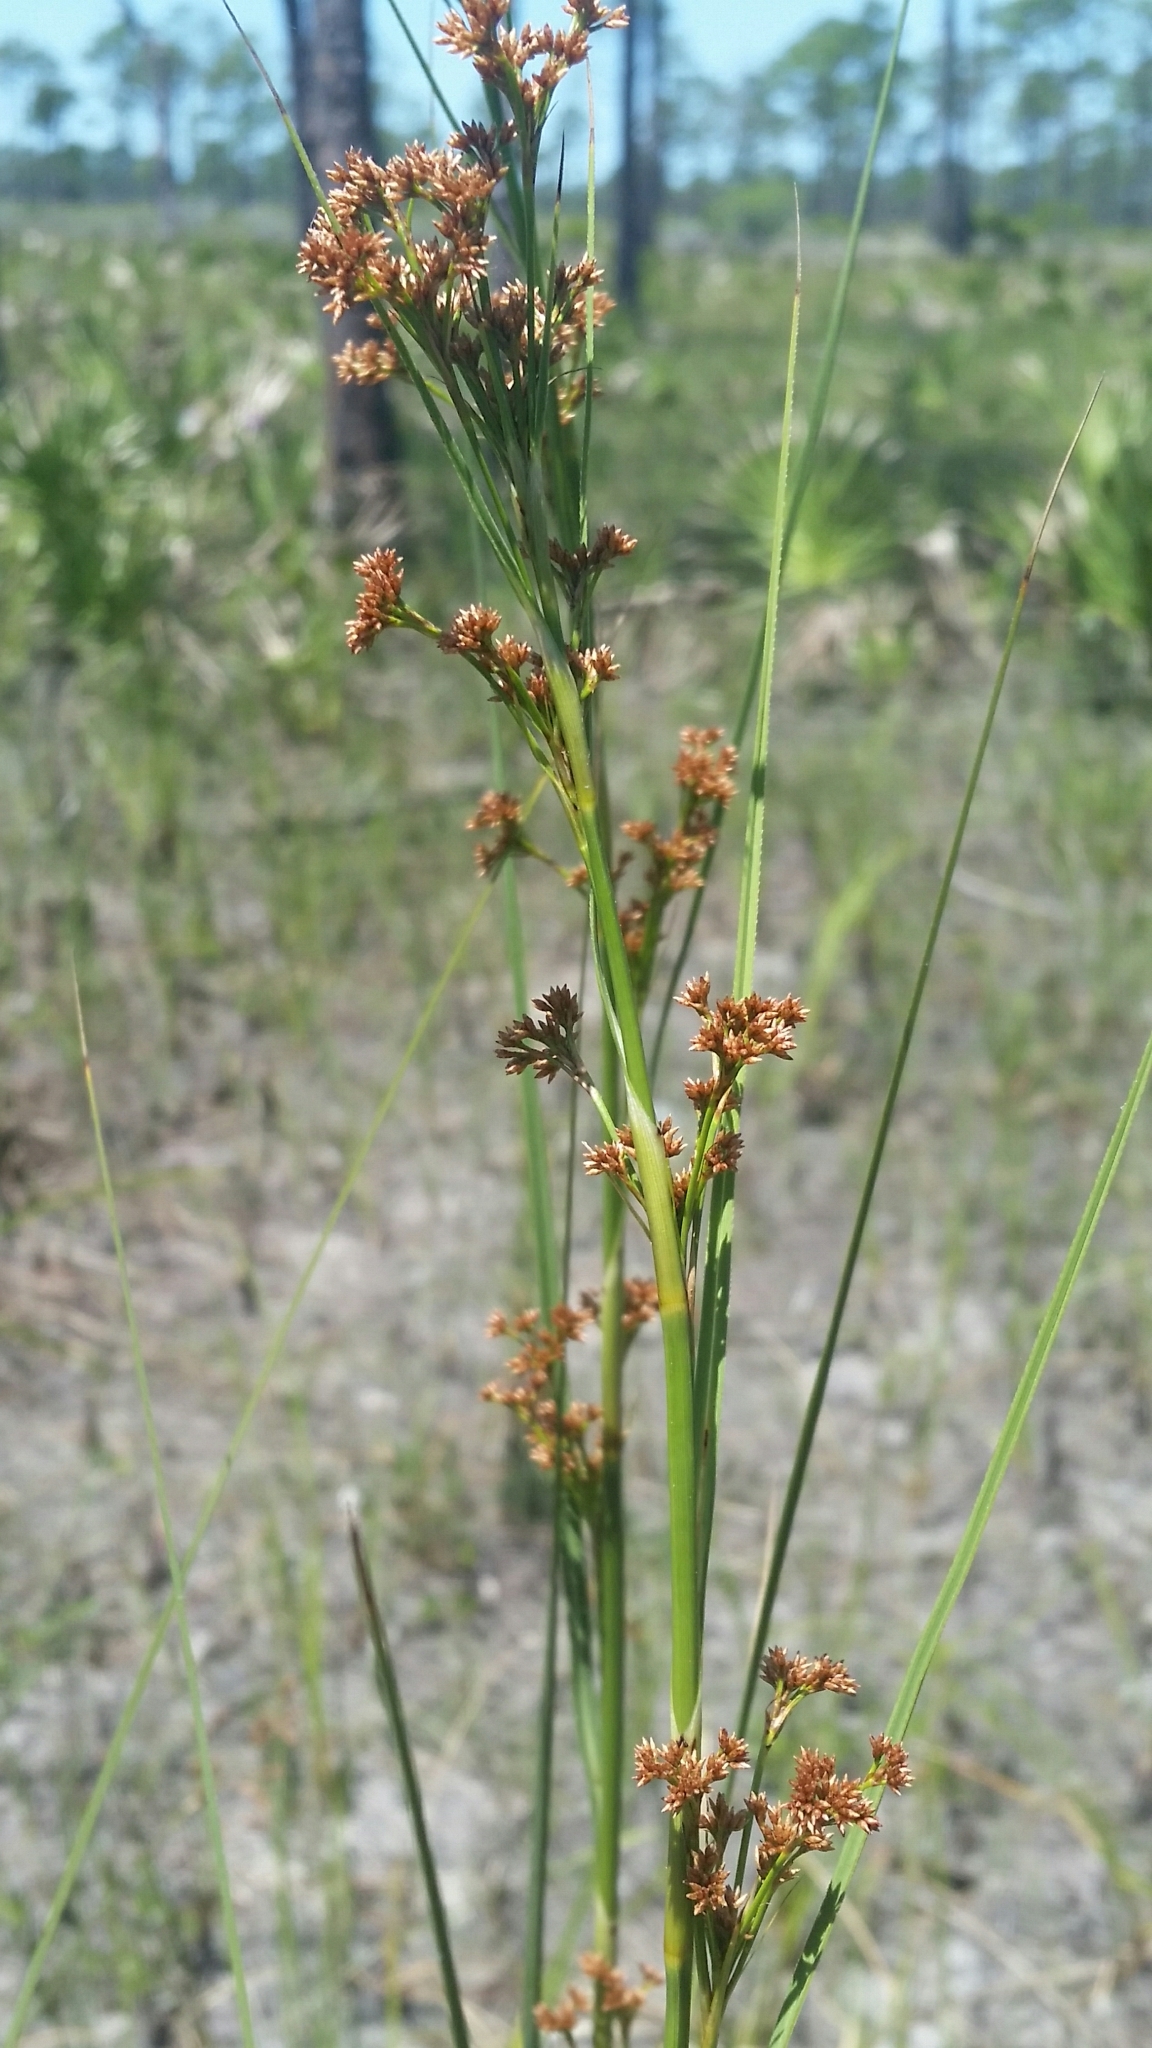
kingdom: Plantae
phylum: Tracheophyta
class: Liliopsida
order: Poales
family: Cyperaceae
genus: Cladium
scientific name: Cladium mariscus
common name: Great fen-sedge
